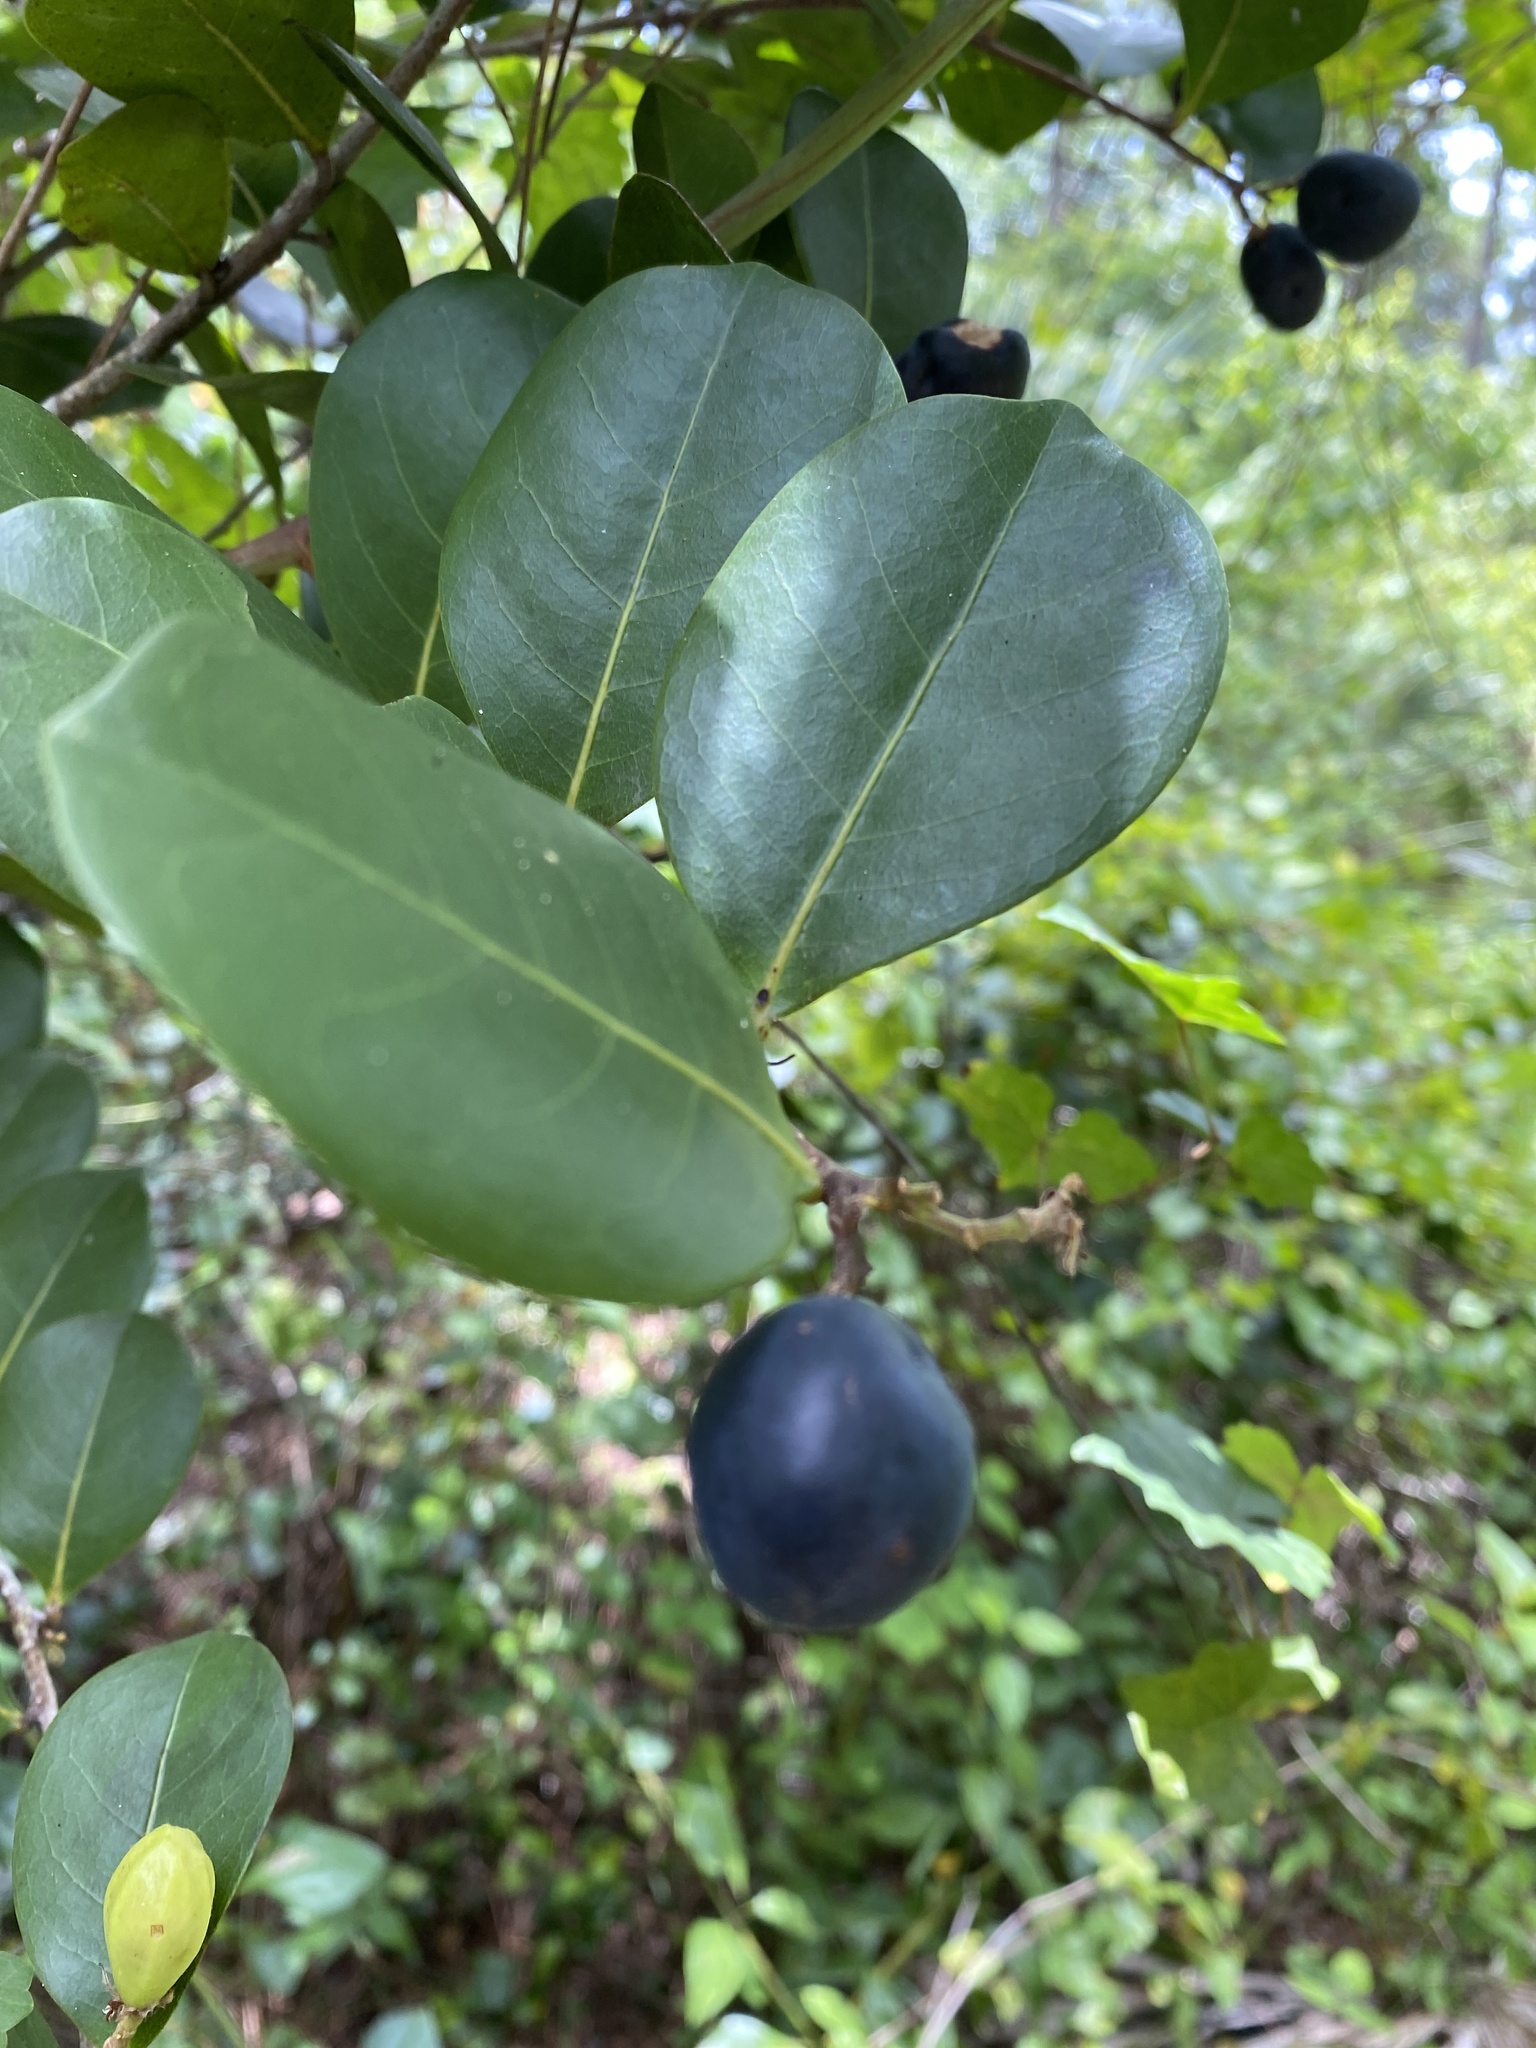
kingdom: Plantae
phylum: Tracheophyta
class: Magnoliopsida
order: Malpighiales
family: Chrysobalanaceae
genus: Chrysobalanus
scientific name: Chrysobalanus icaco
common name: Coco plum
